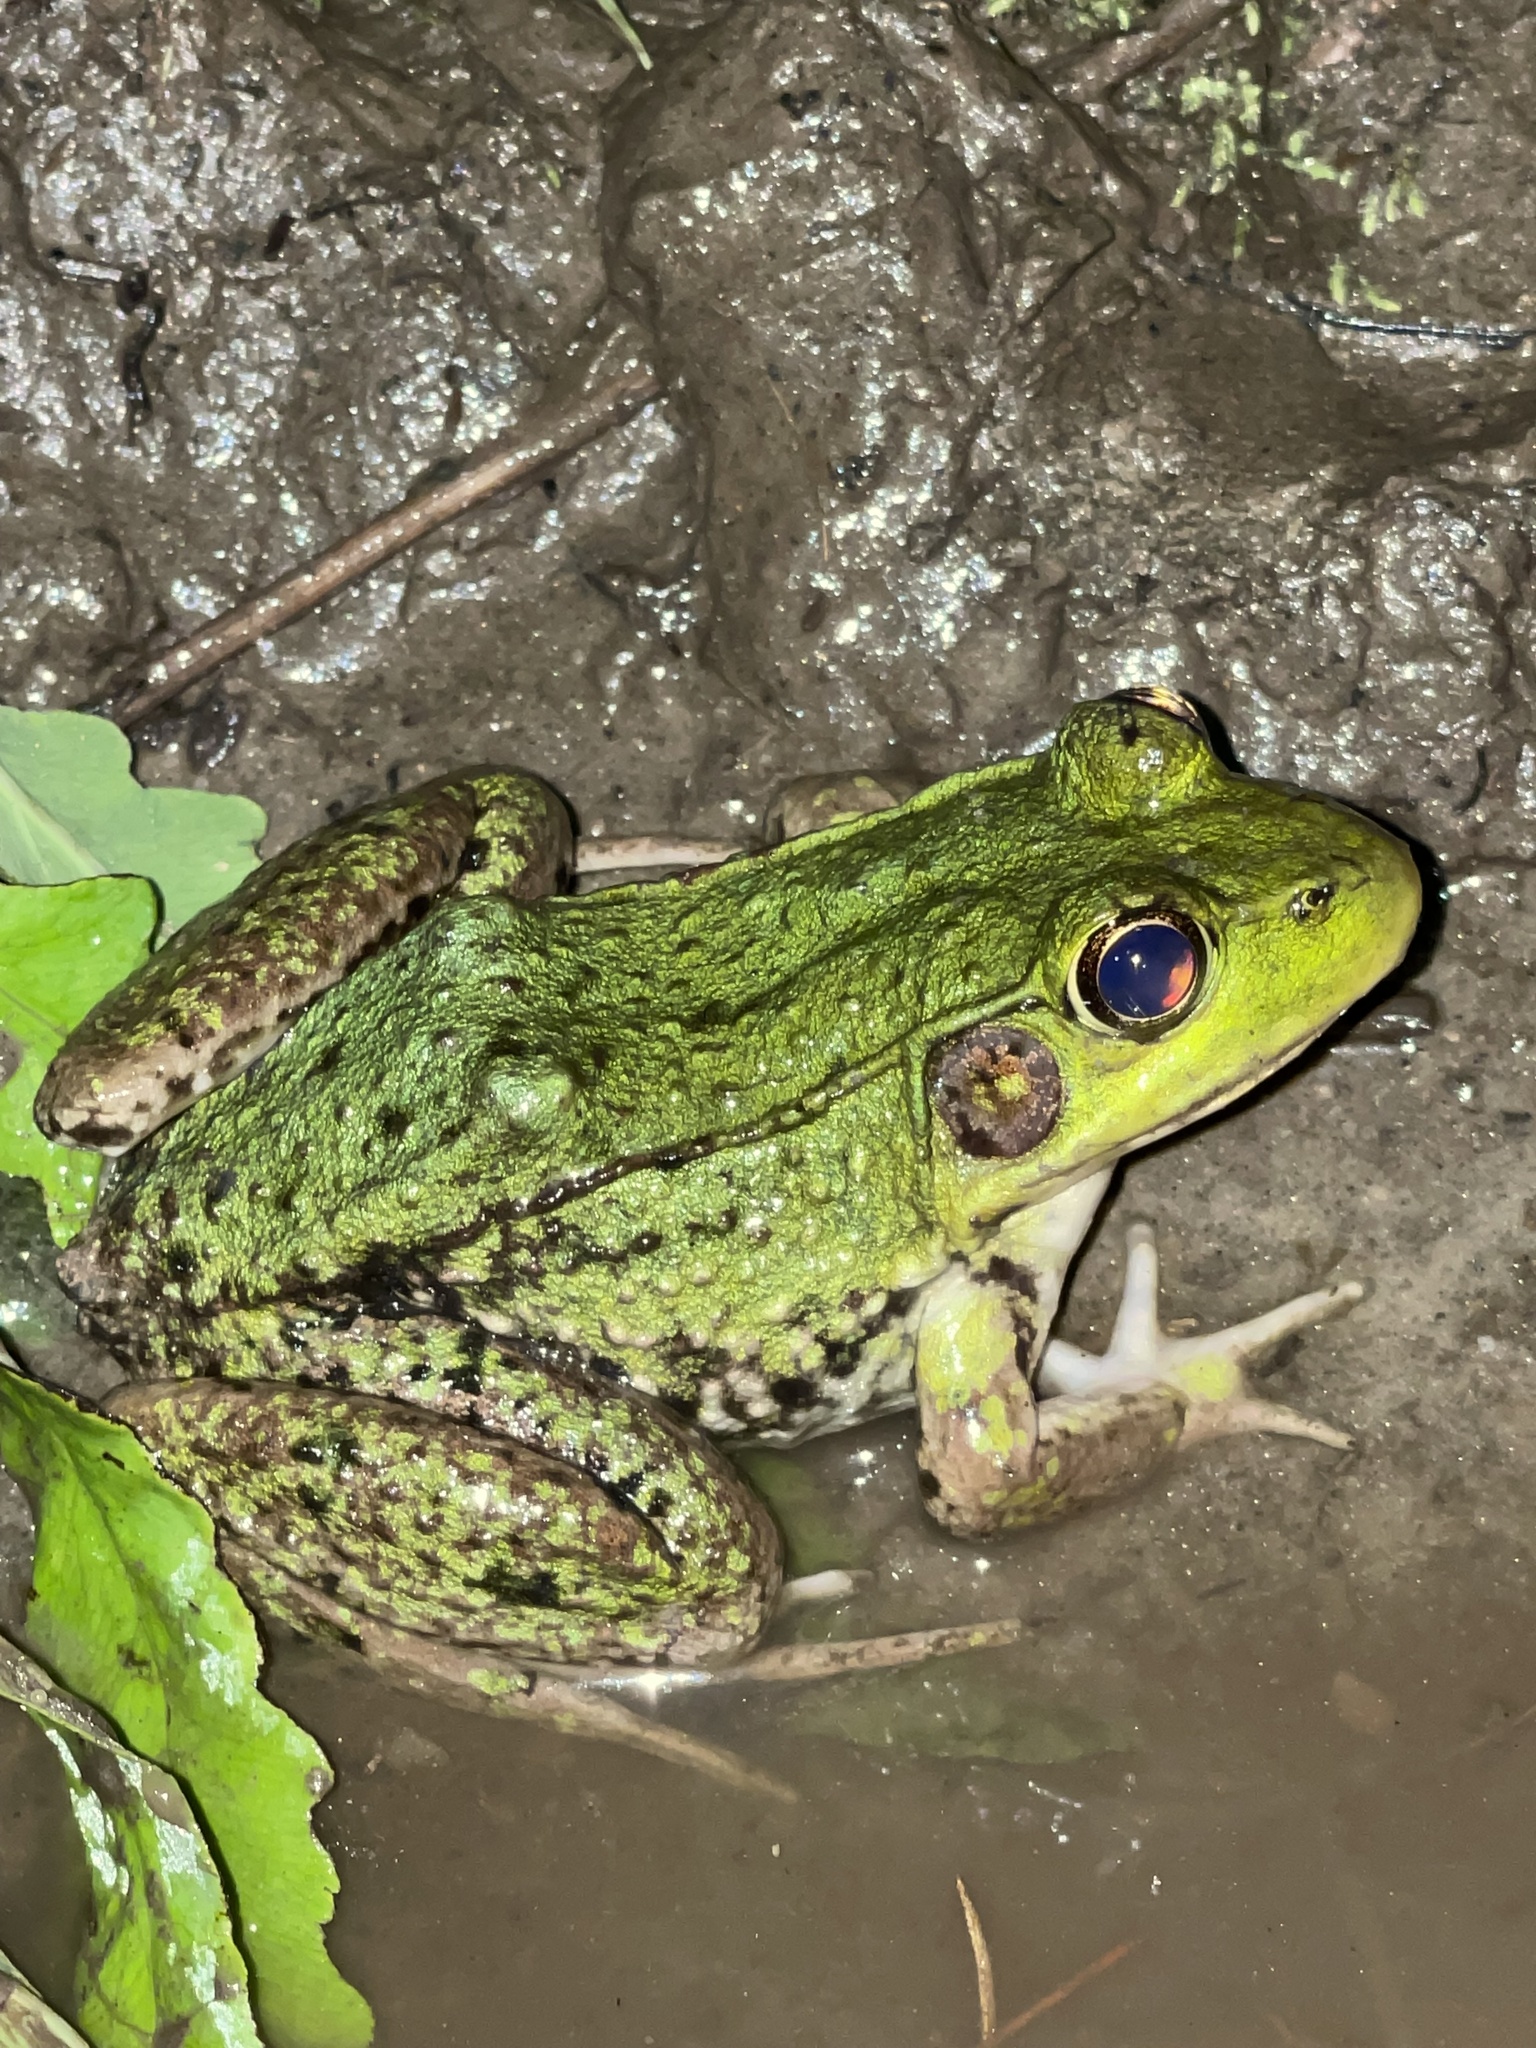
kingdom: Animalia
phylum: Chordata
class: Amphibia
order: Anura
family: Ranidae
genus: Lithobates
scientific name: Lithobates clamitans
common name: Green frog
